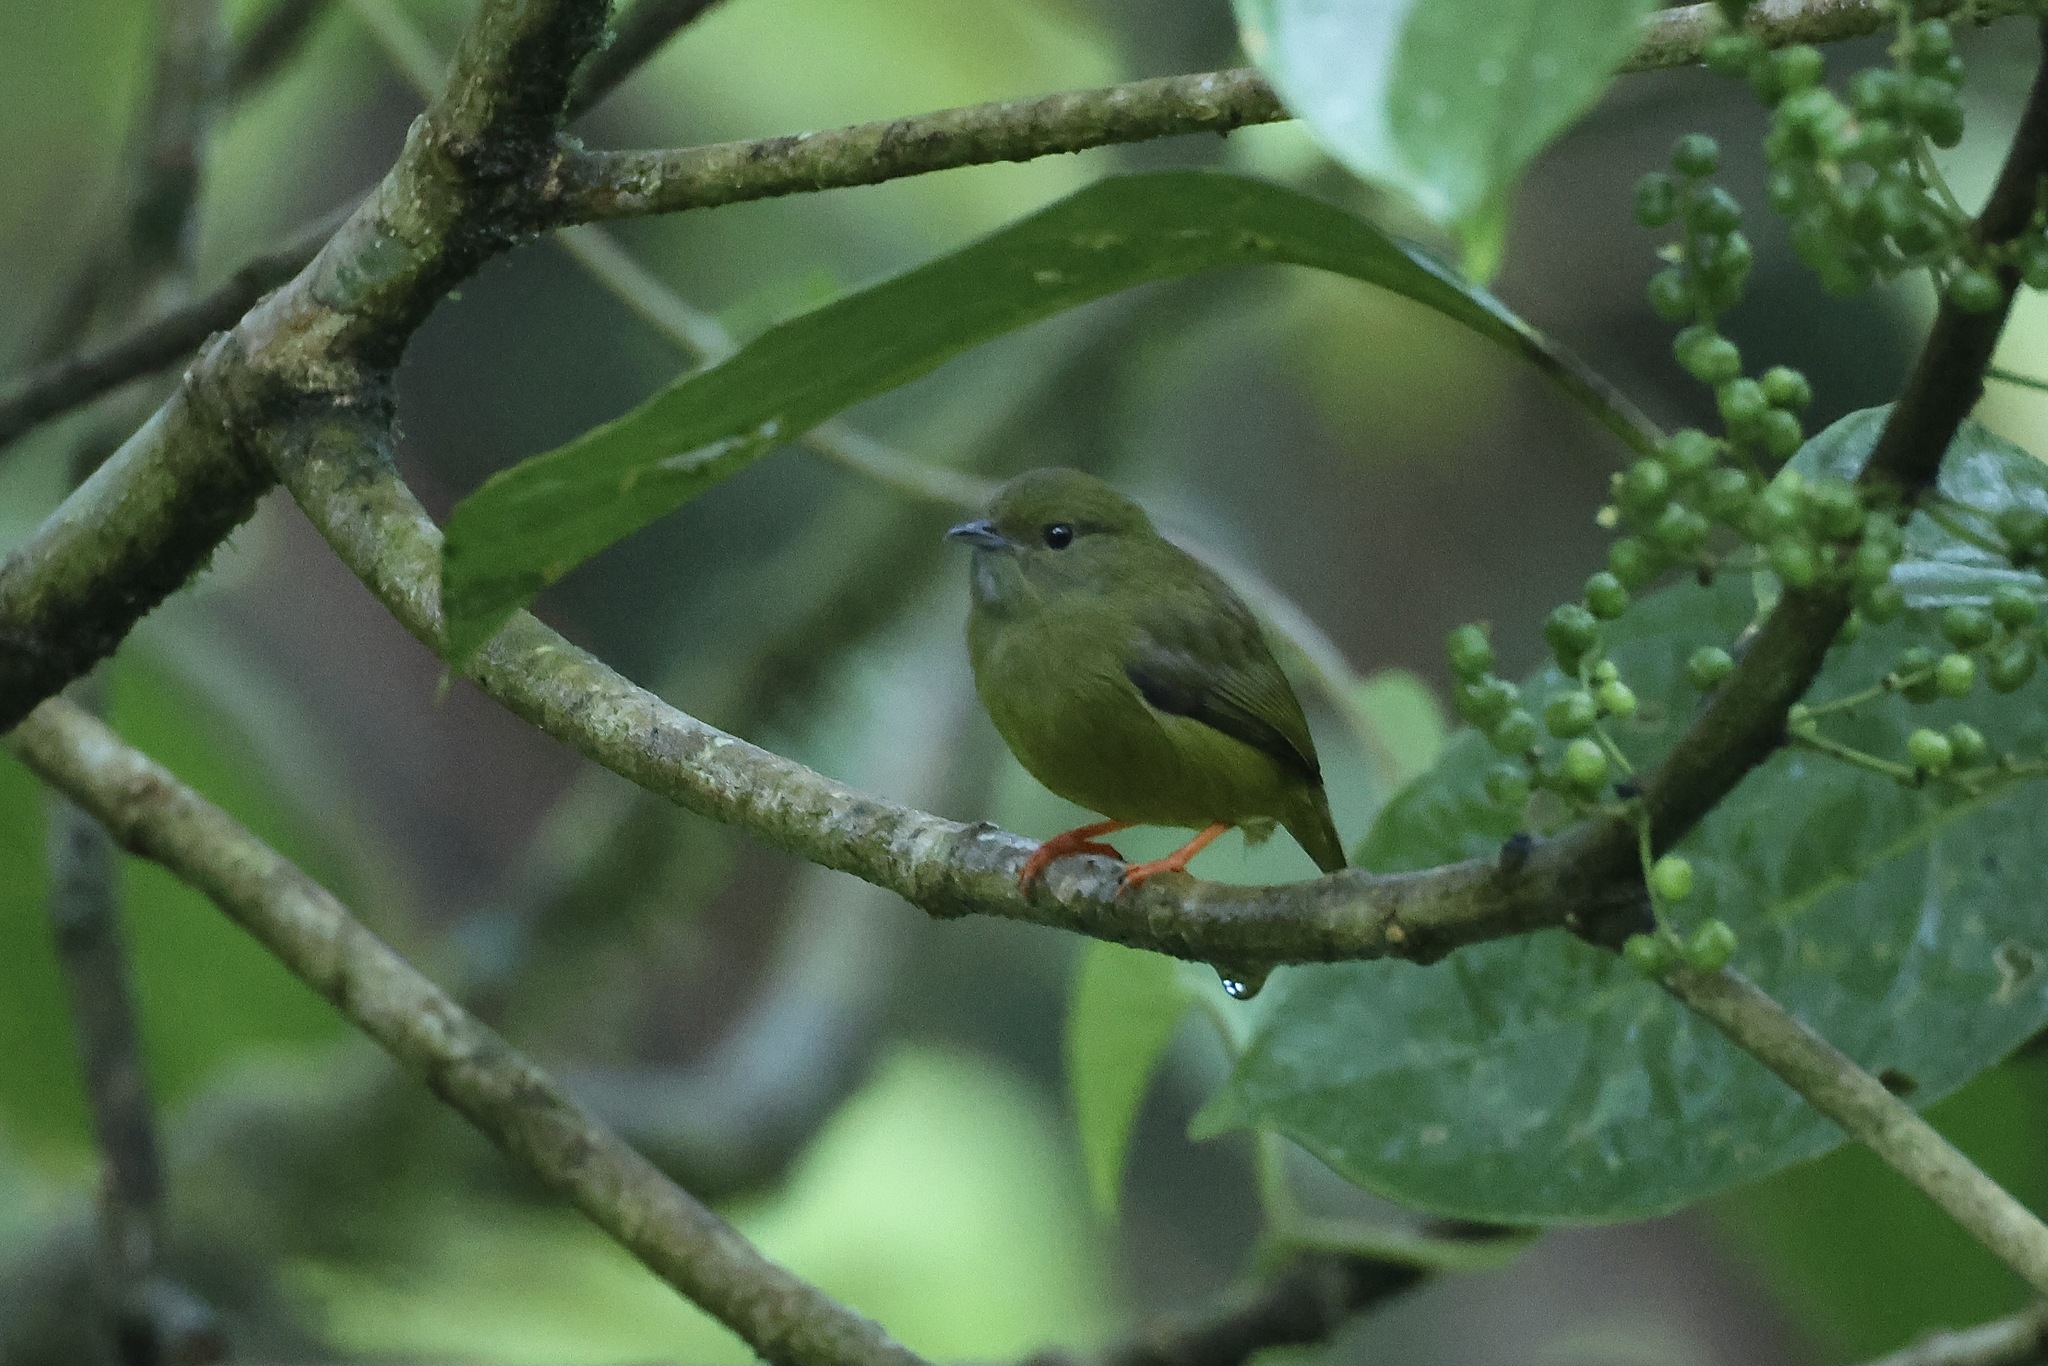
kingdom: Animalia
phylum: Chordata
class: Aves
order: Passeriformes
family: Pipridae
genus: Manacus
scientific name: Manacus candei
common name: White-collared manakin
